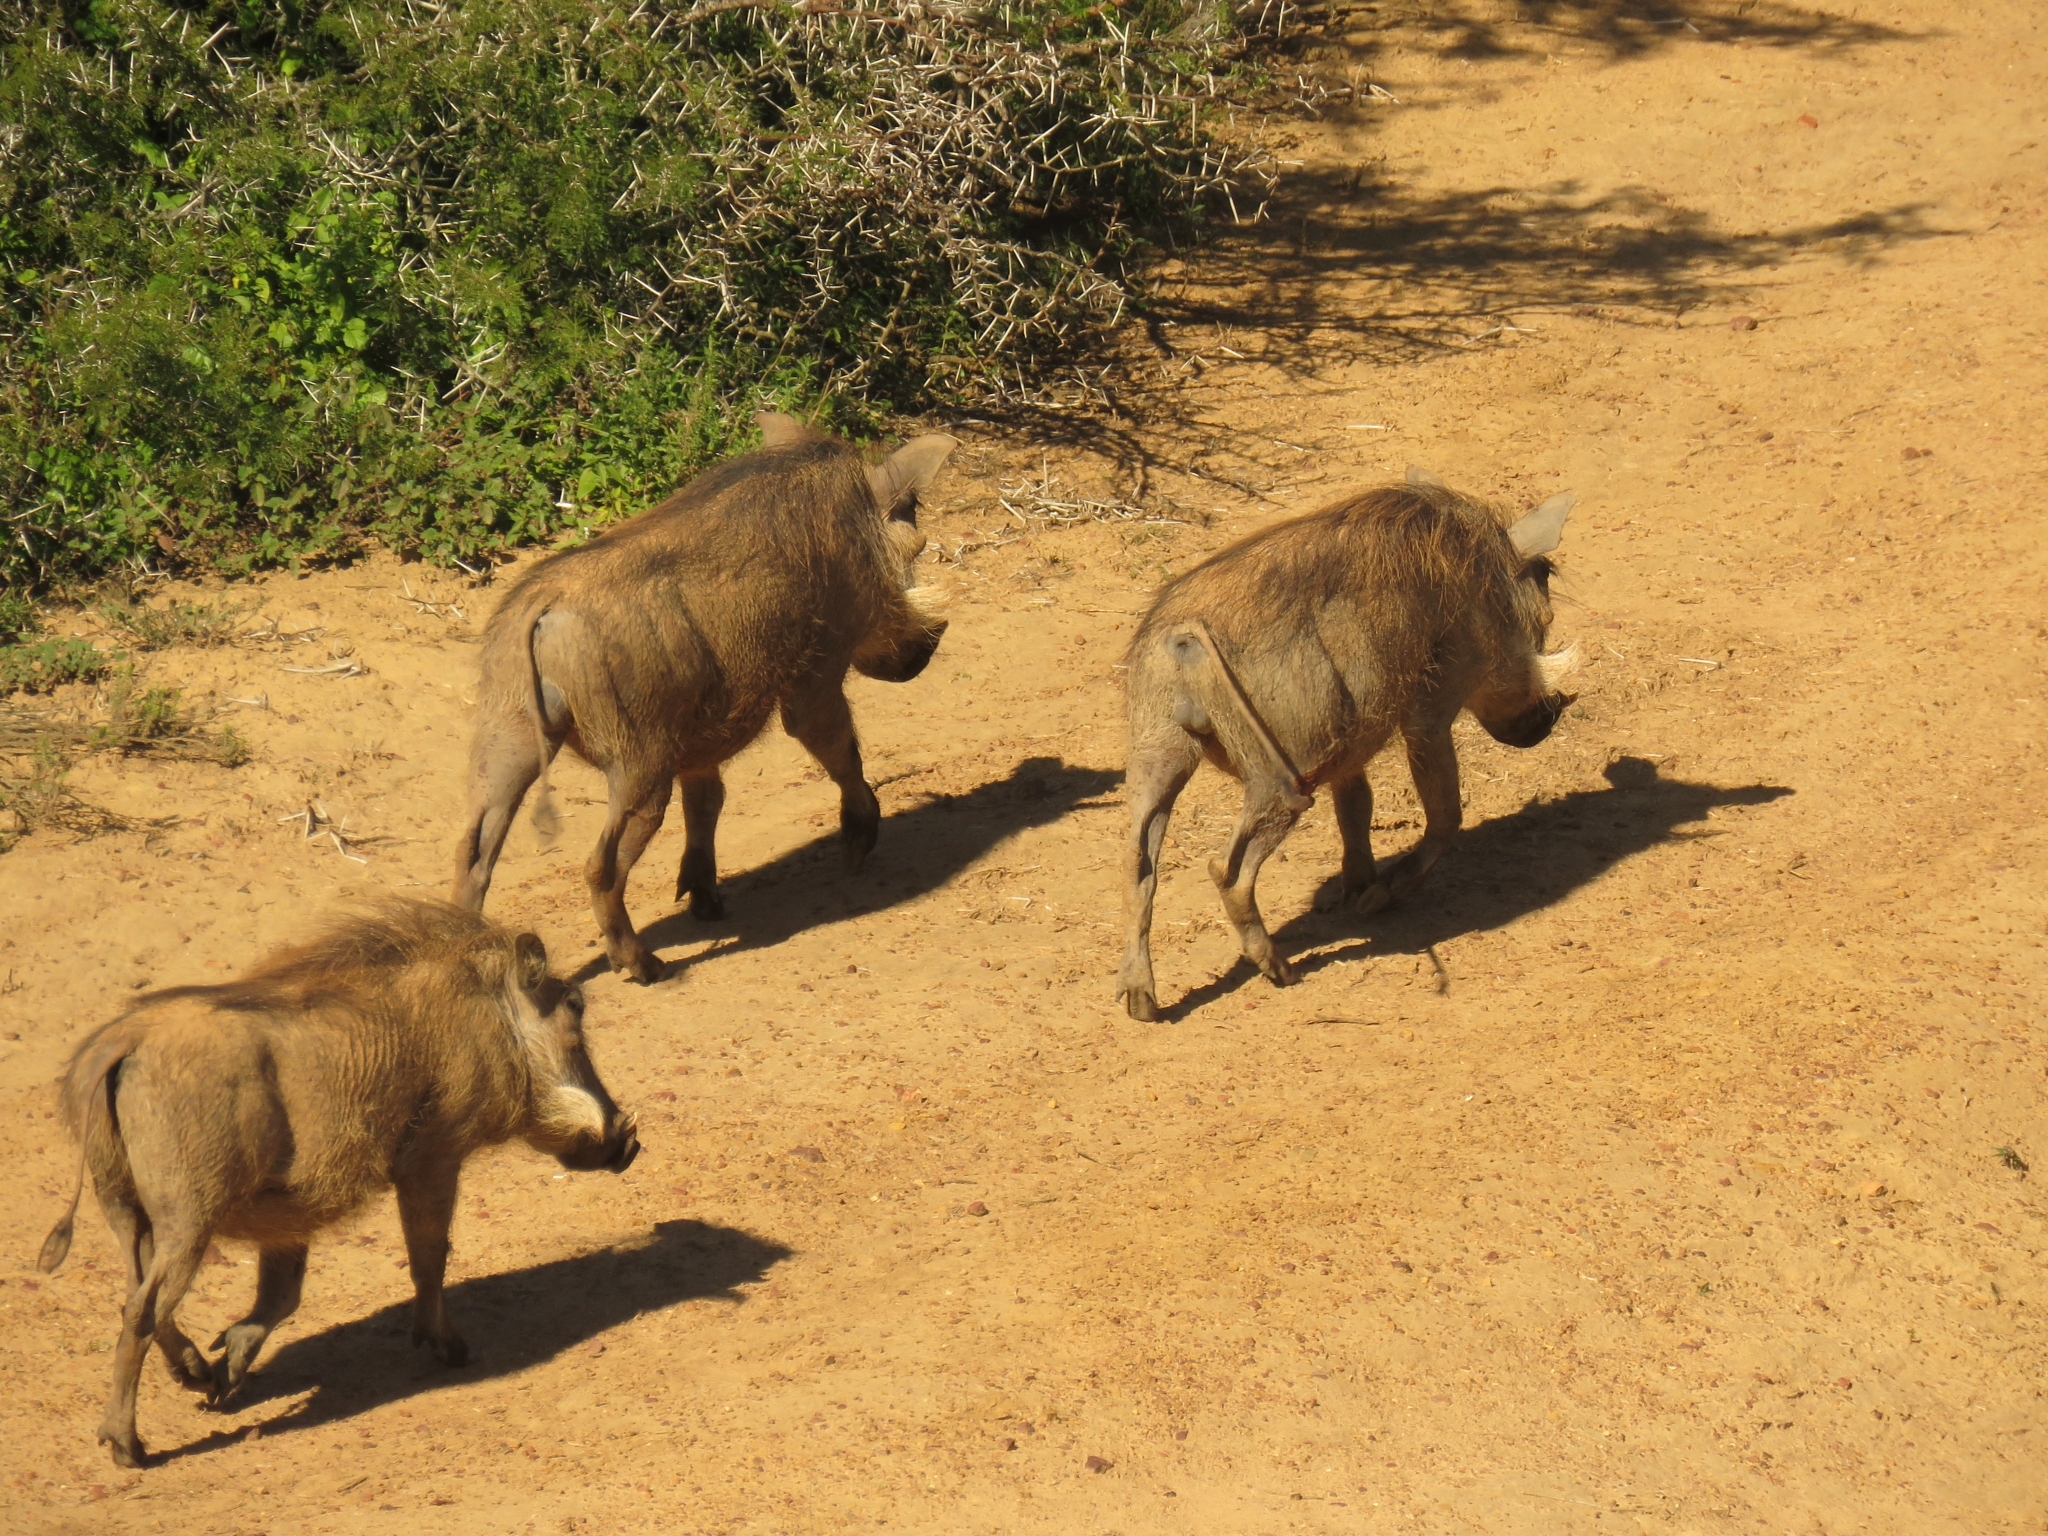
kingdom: Animalia
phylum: Chordata
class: Mammalia
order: Artiodactyla
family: Suidae
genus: Phacochoerus
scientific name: Phacochoerus africanus
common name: Common warthog
